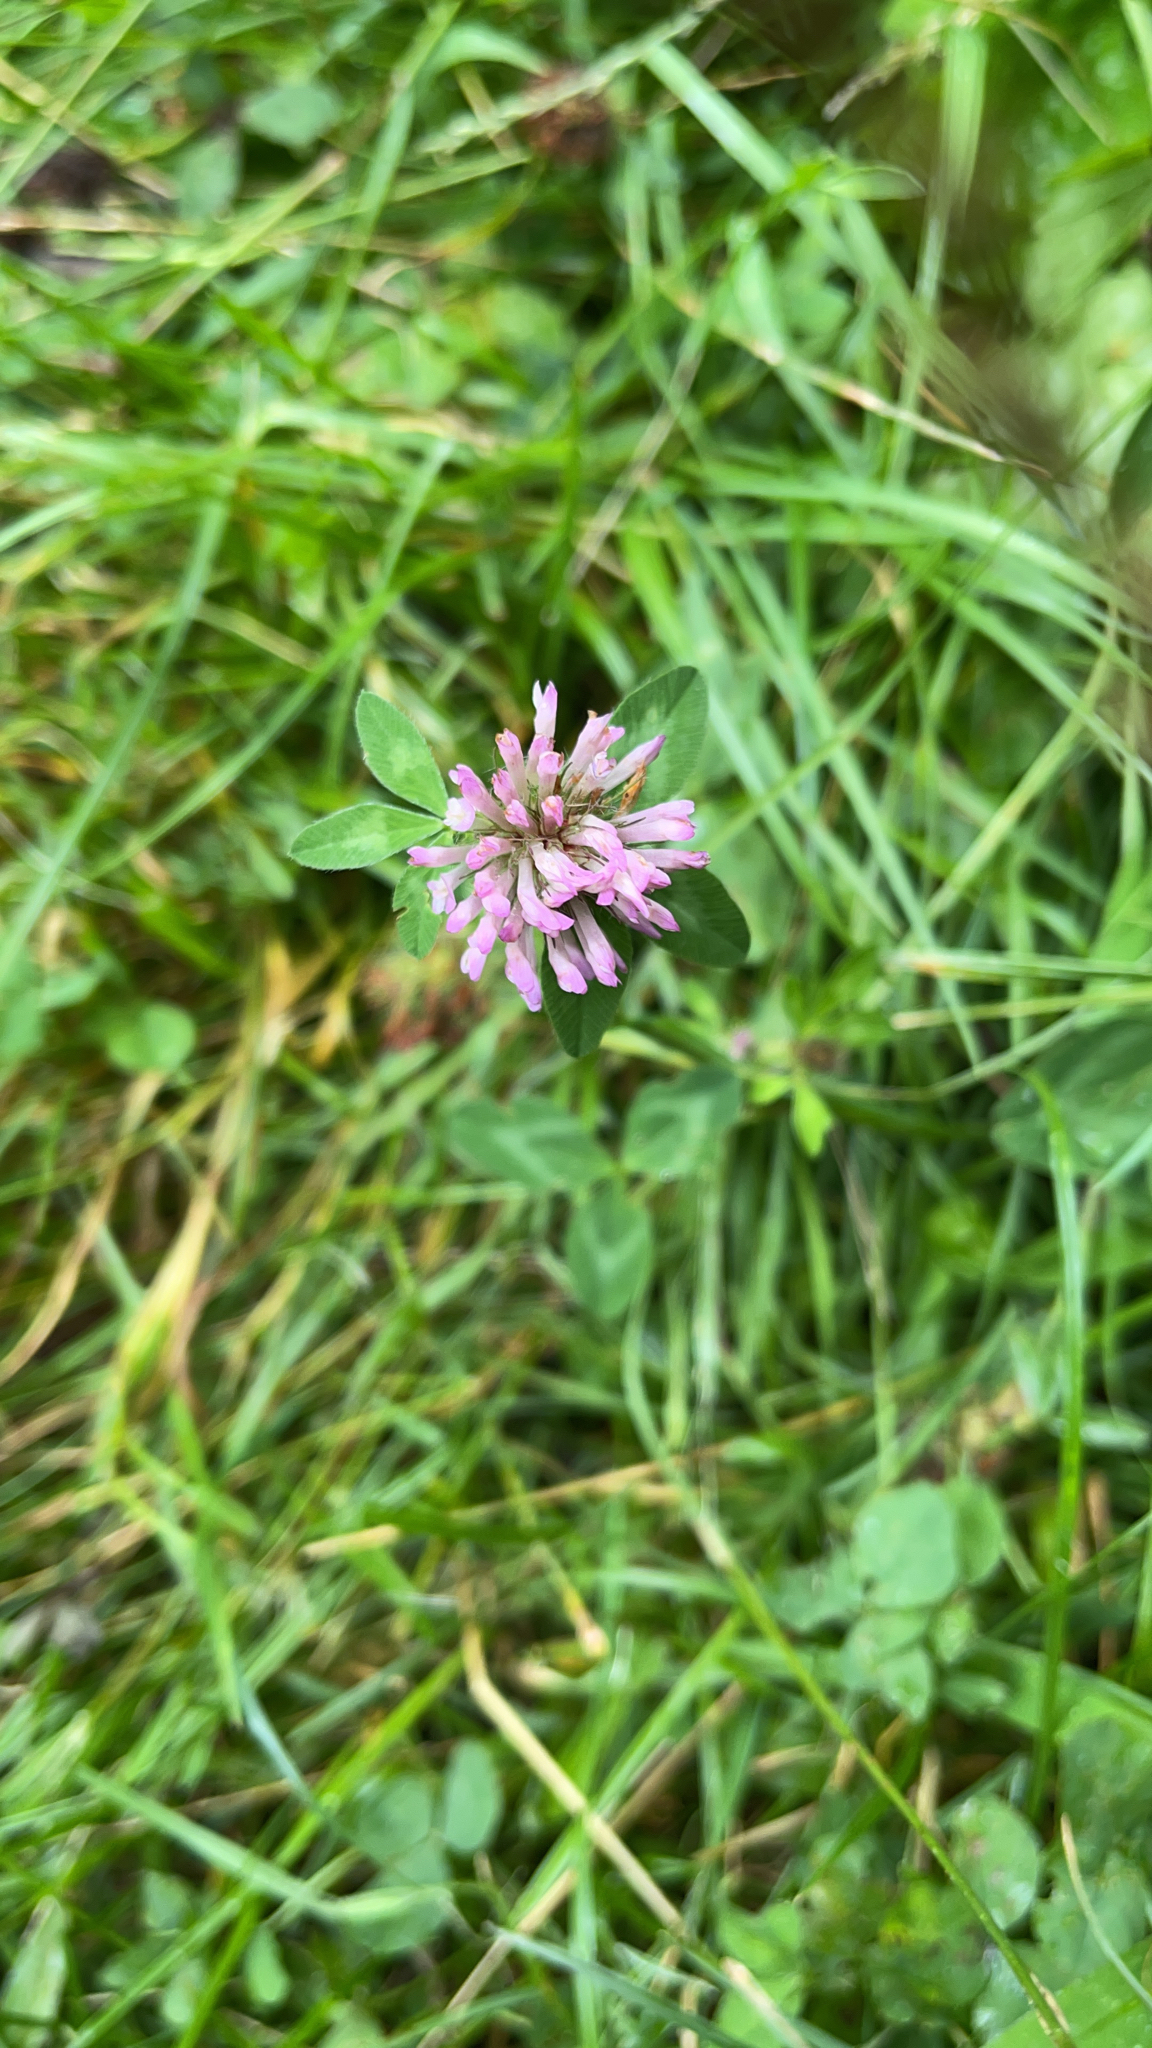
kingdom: Plantae
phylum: Tracheophyta
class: Magnoliopsida
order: Fabales
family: Fabaceae
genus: Trifolium
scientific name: Trifolium pratense
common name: Red clover
